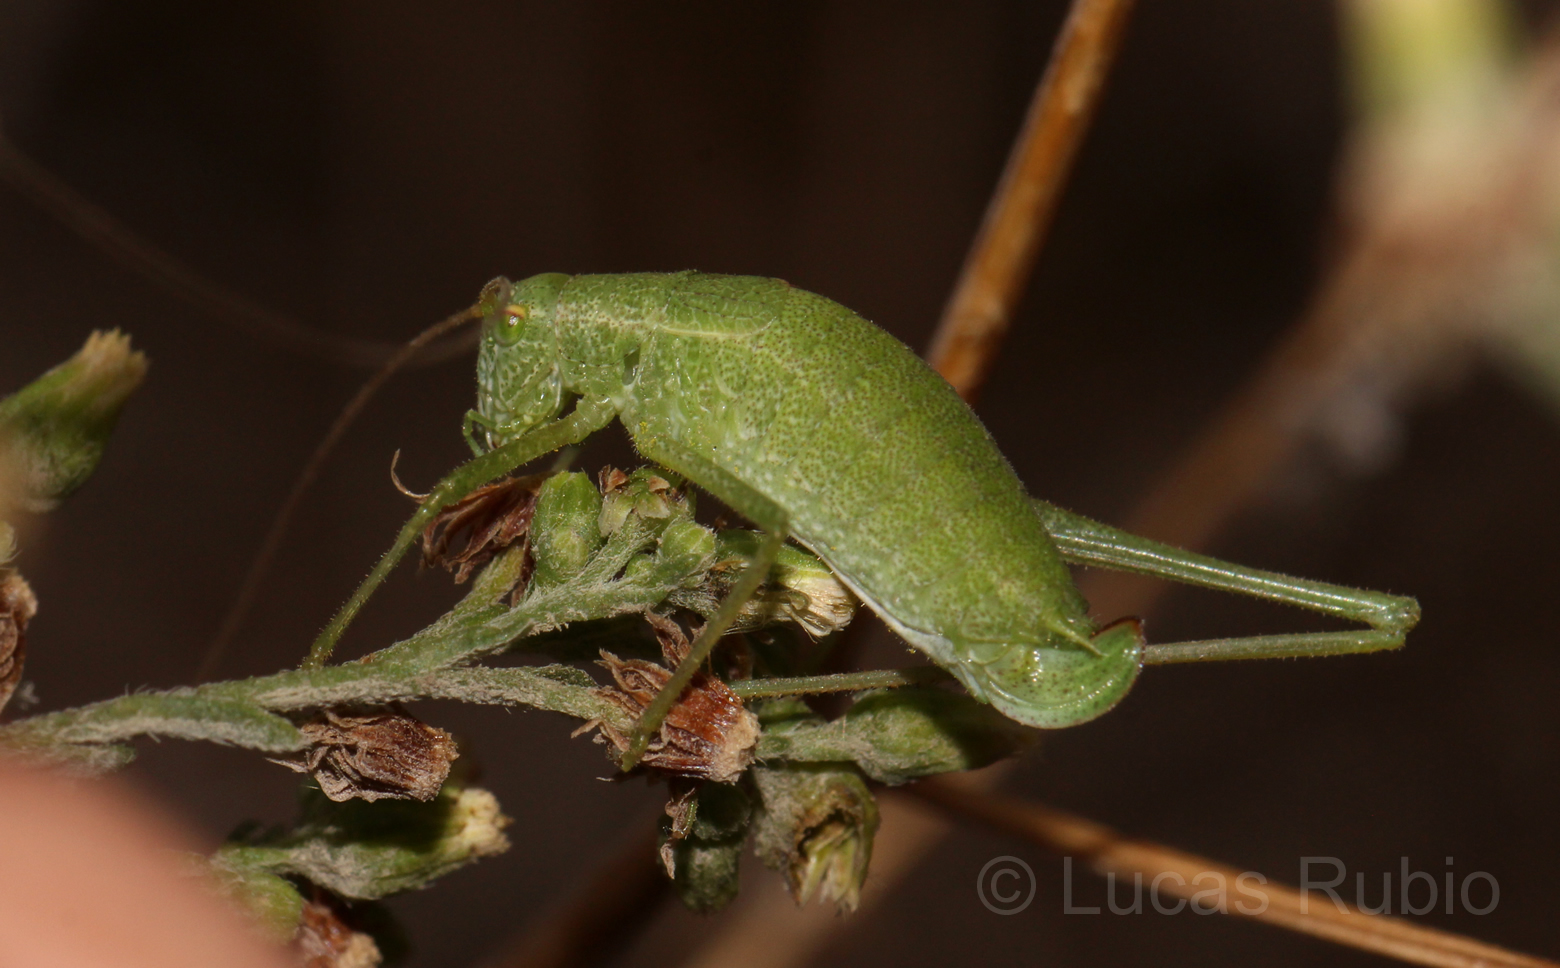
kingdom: Animalia
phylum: Arthropoda
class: Insecta
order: Orthoptera
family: Tettigoniidae
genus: Anisophya
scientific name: Anisophya punctinervis
